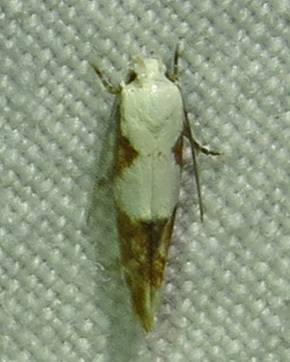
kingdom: Animalia
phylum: Arthropoda
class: Insecta
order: Lepidoptera
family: Momphidae
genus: Mompha
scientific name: Mompha circumscriptella
